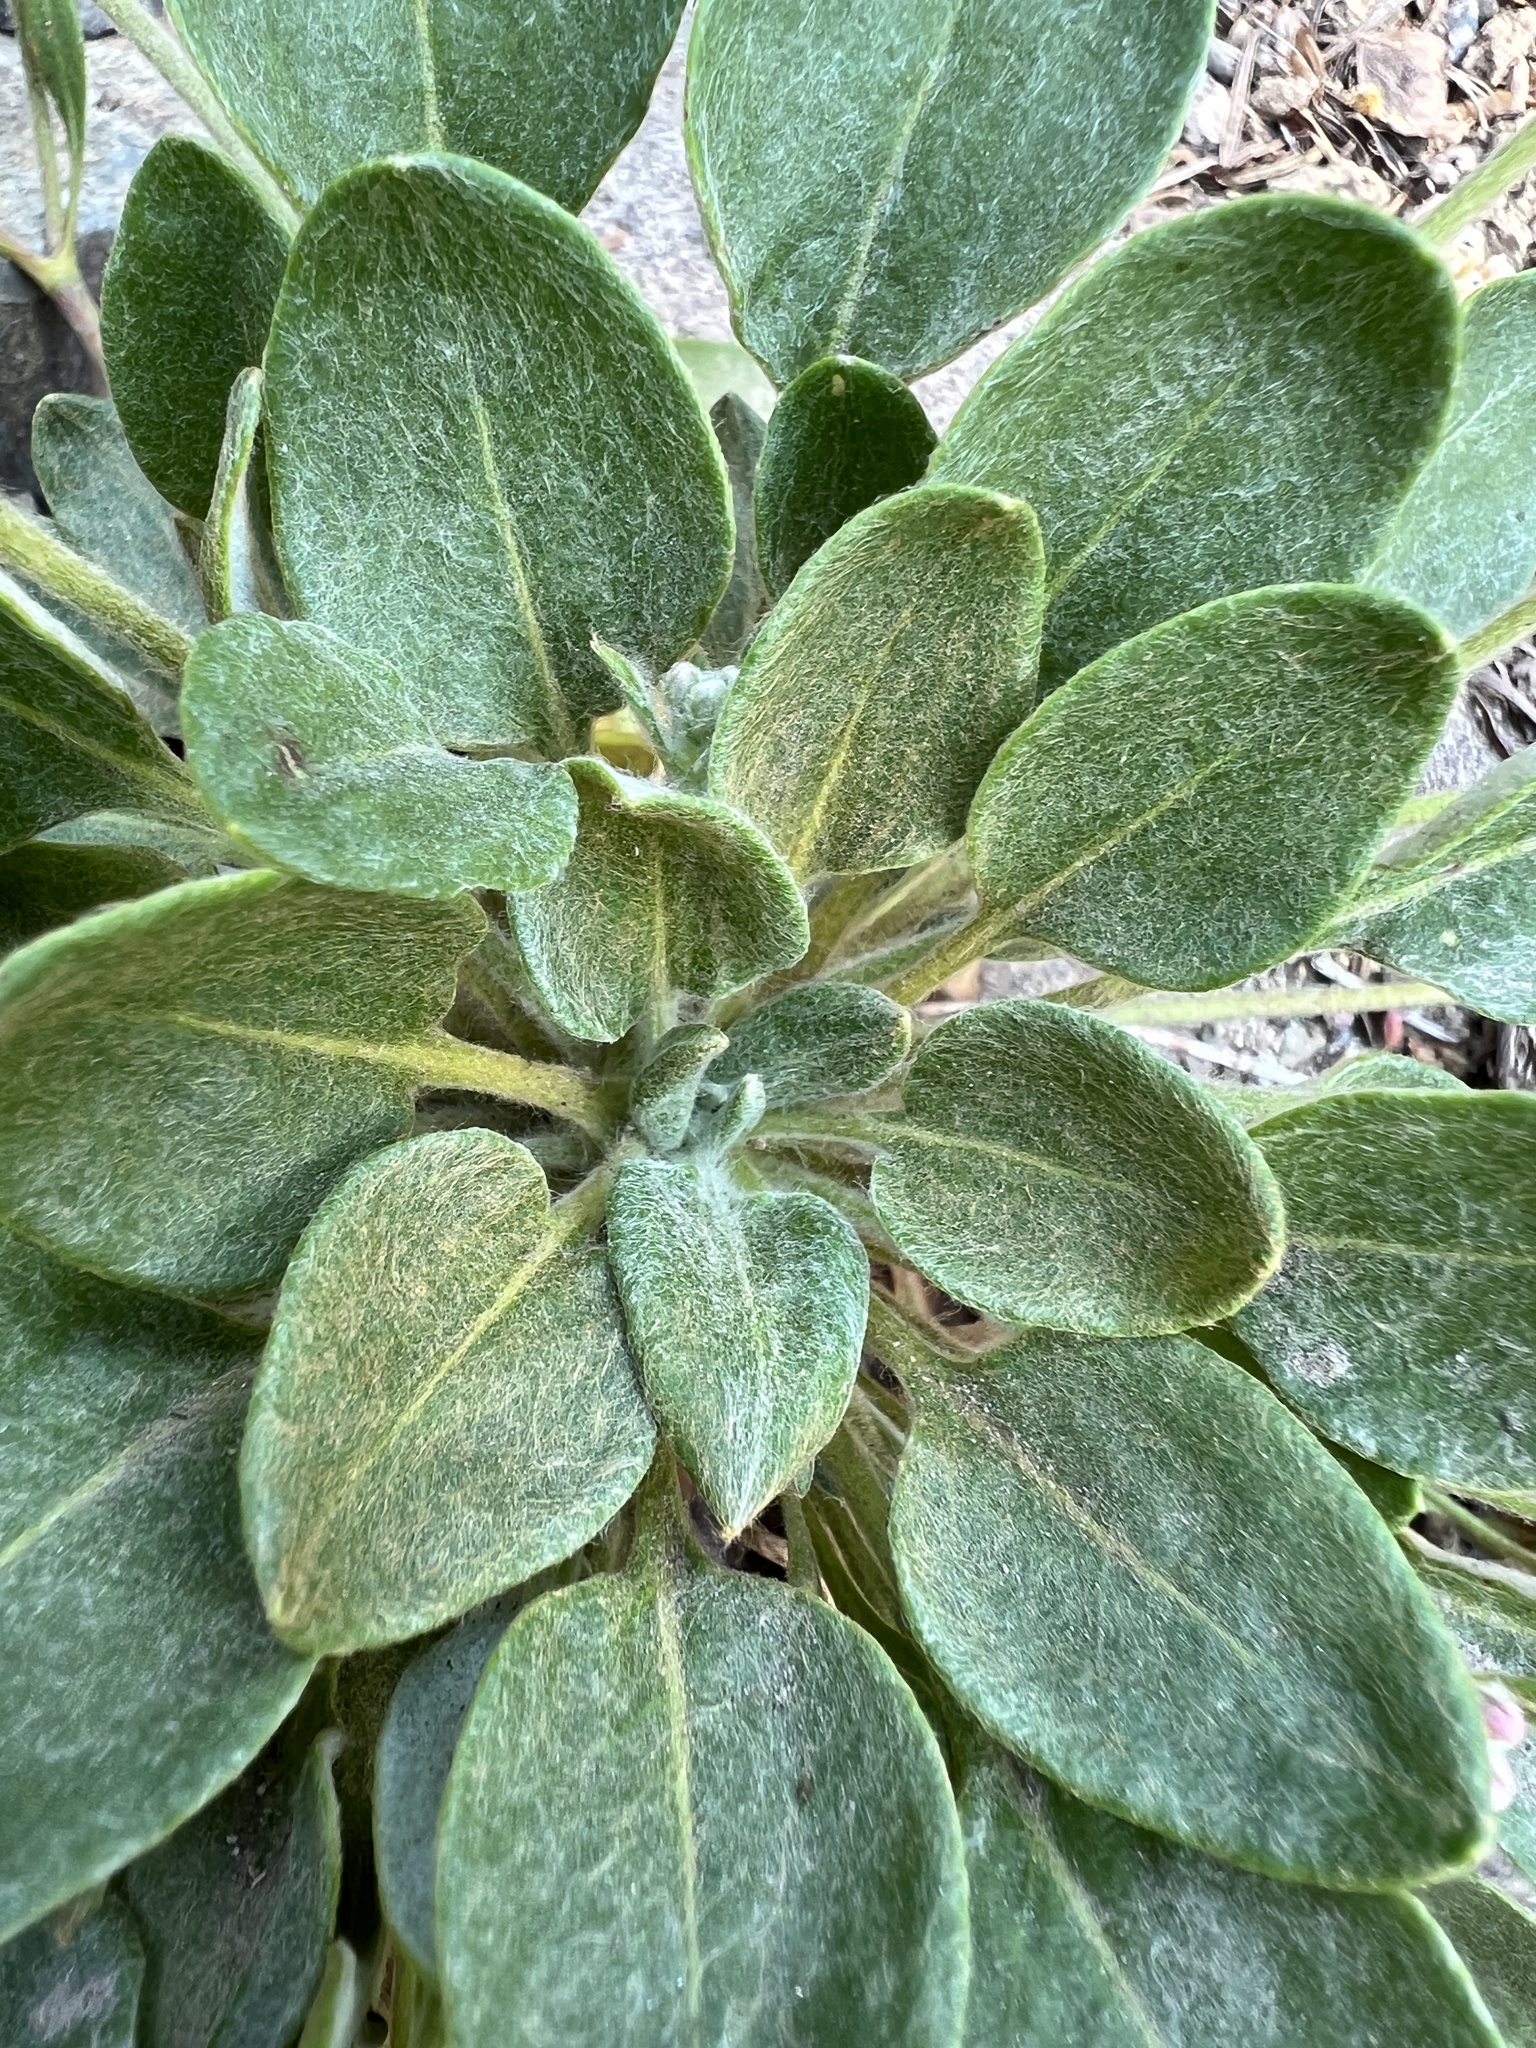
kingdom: Plantae
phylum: Tracheophyta
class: Magnoliopsida
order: Caryophyllales
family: Polygonaceae
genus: Eriogonum
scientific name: Eriogonum pyrolifolium
